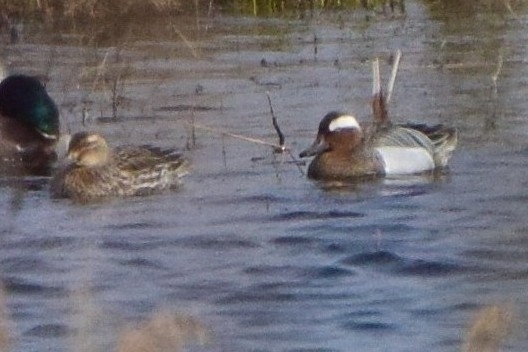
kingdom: Animalia
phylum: Chordata
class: Aves
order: Anseriformes
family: Anatidae
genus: Spatula
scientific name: Spatula querquedula
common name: Garganey
